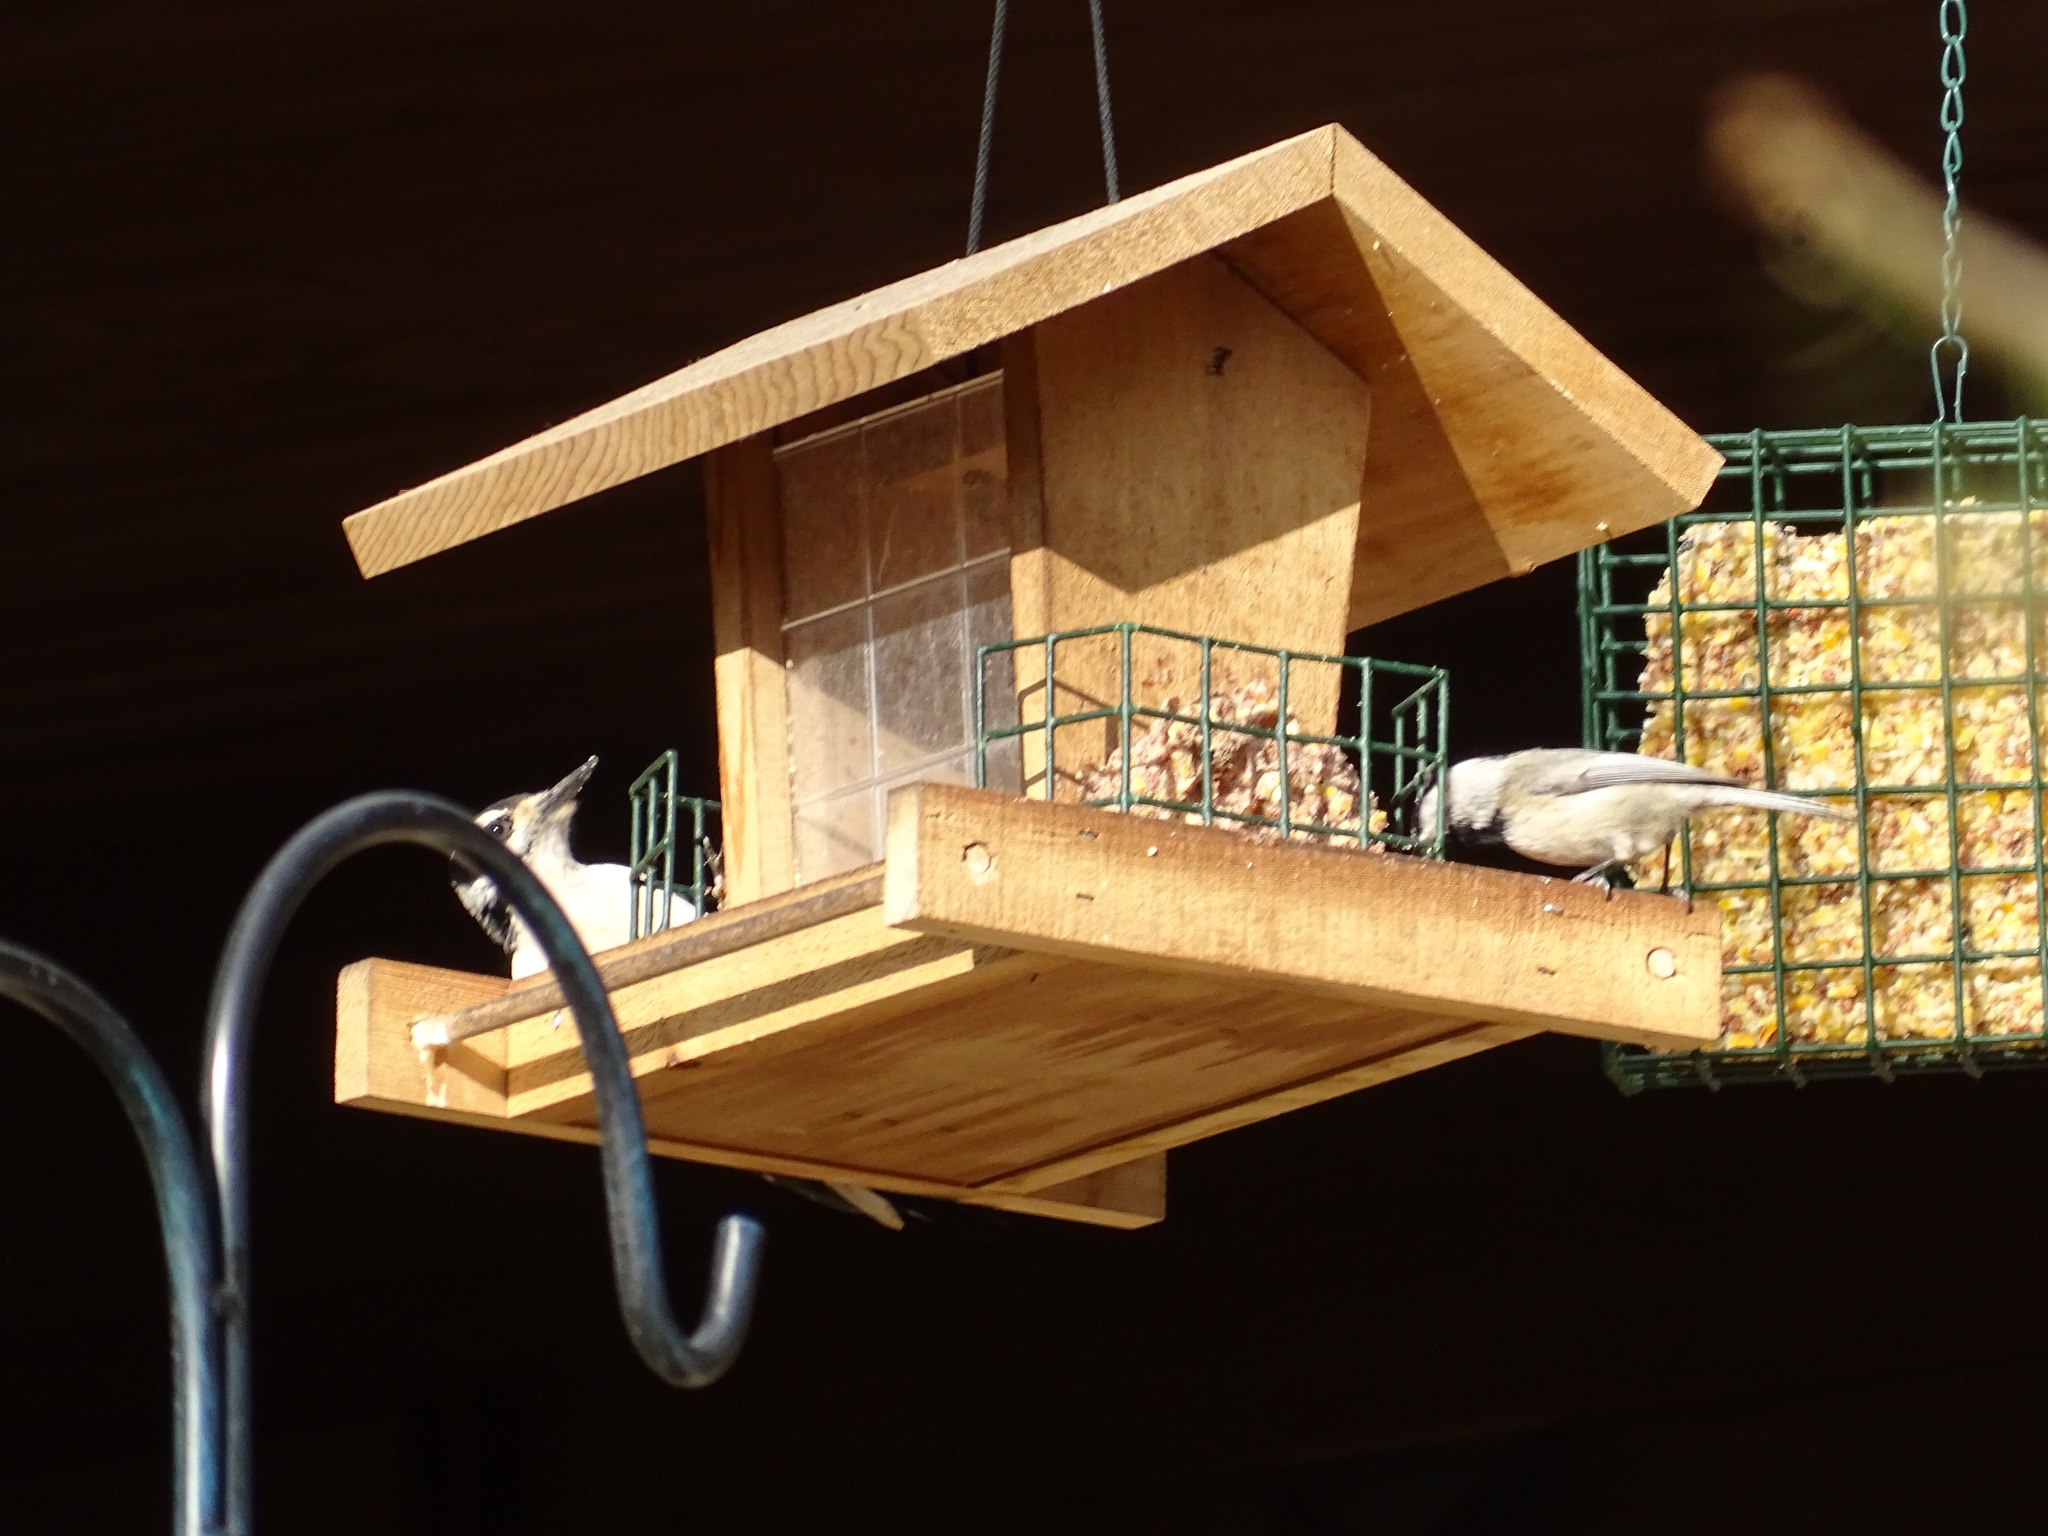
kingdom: Animalia
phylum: Chordata
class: Aves
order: Piciformes
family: Picidae
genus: Leuconotopicus
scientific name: Leuconotopicus villosus
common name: Hairy woodpecker
